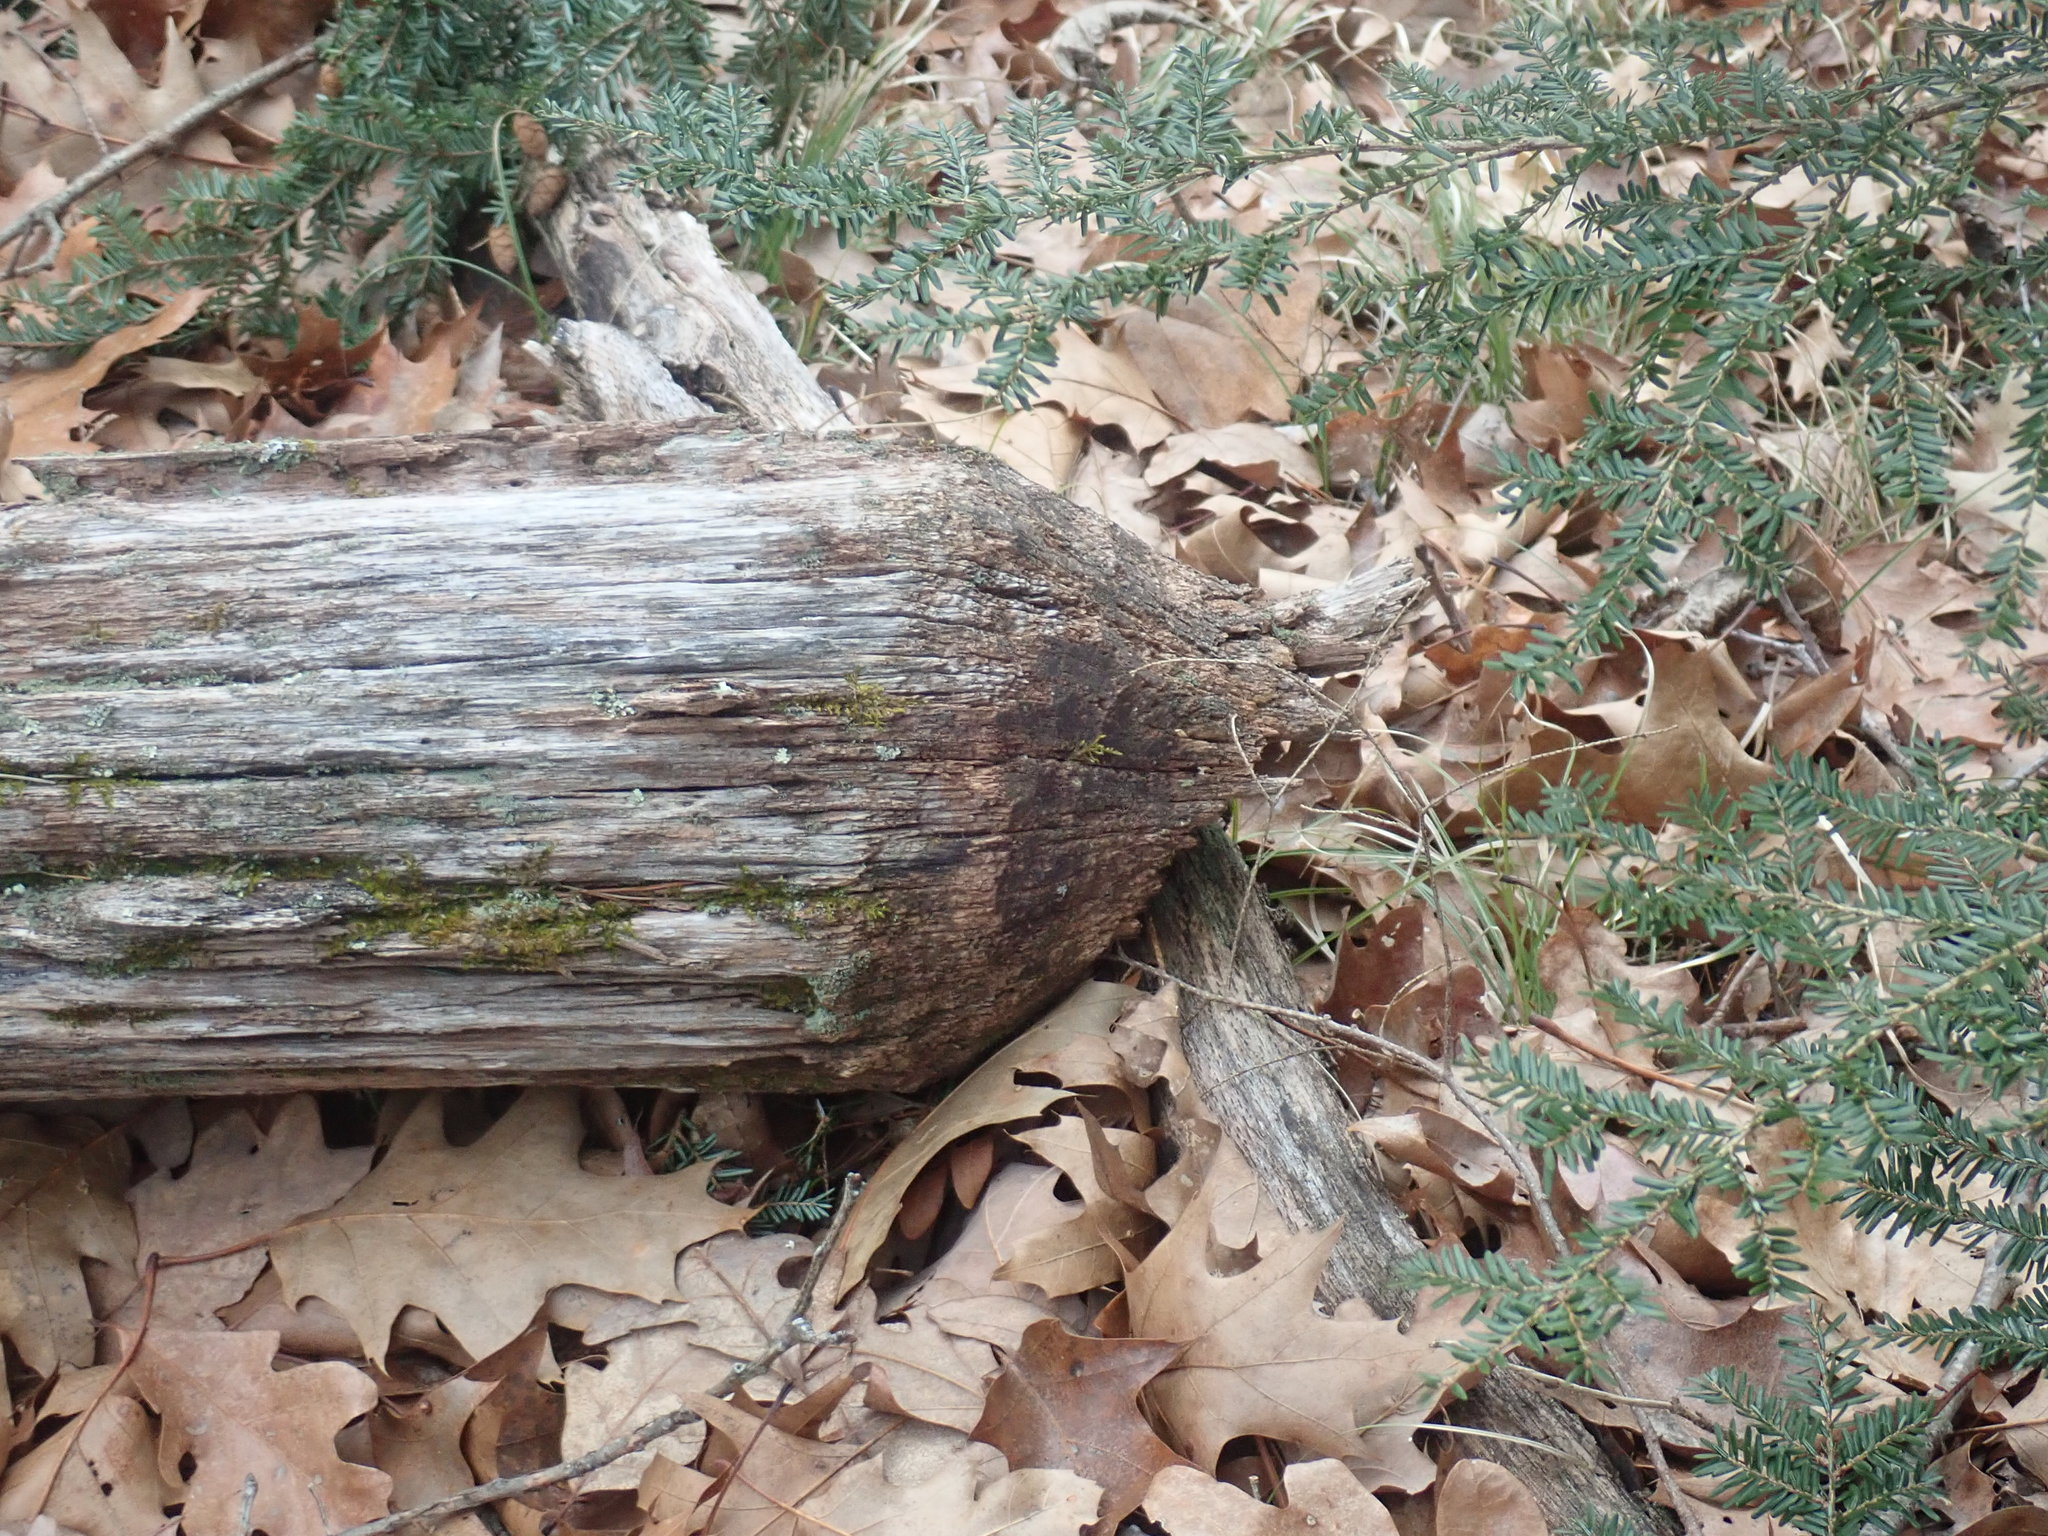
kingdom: Animalia
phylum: Chordata
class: Mammalia
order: Rodentia
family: Castoridae
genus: Castor
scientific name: Castor canadensis
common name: American beaver
